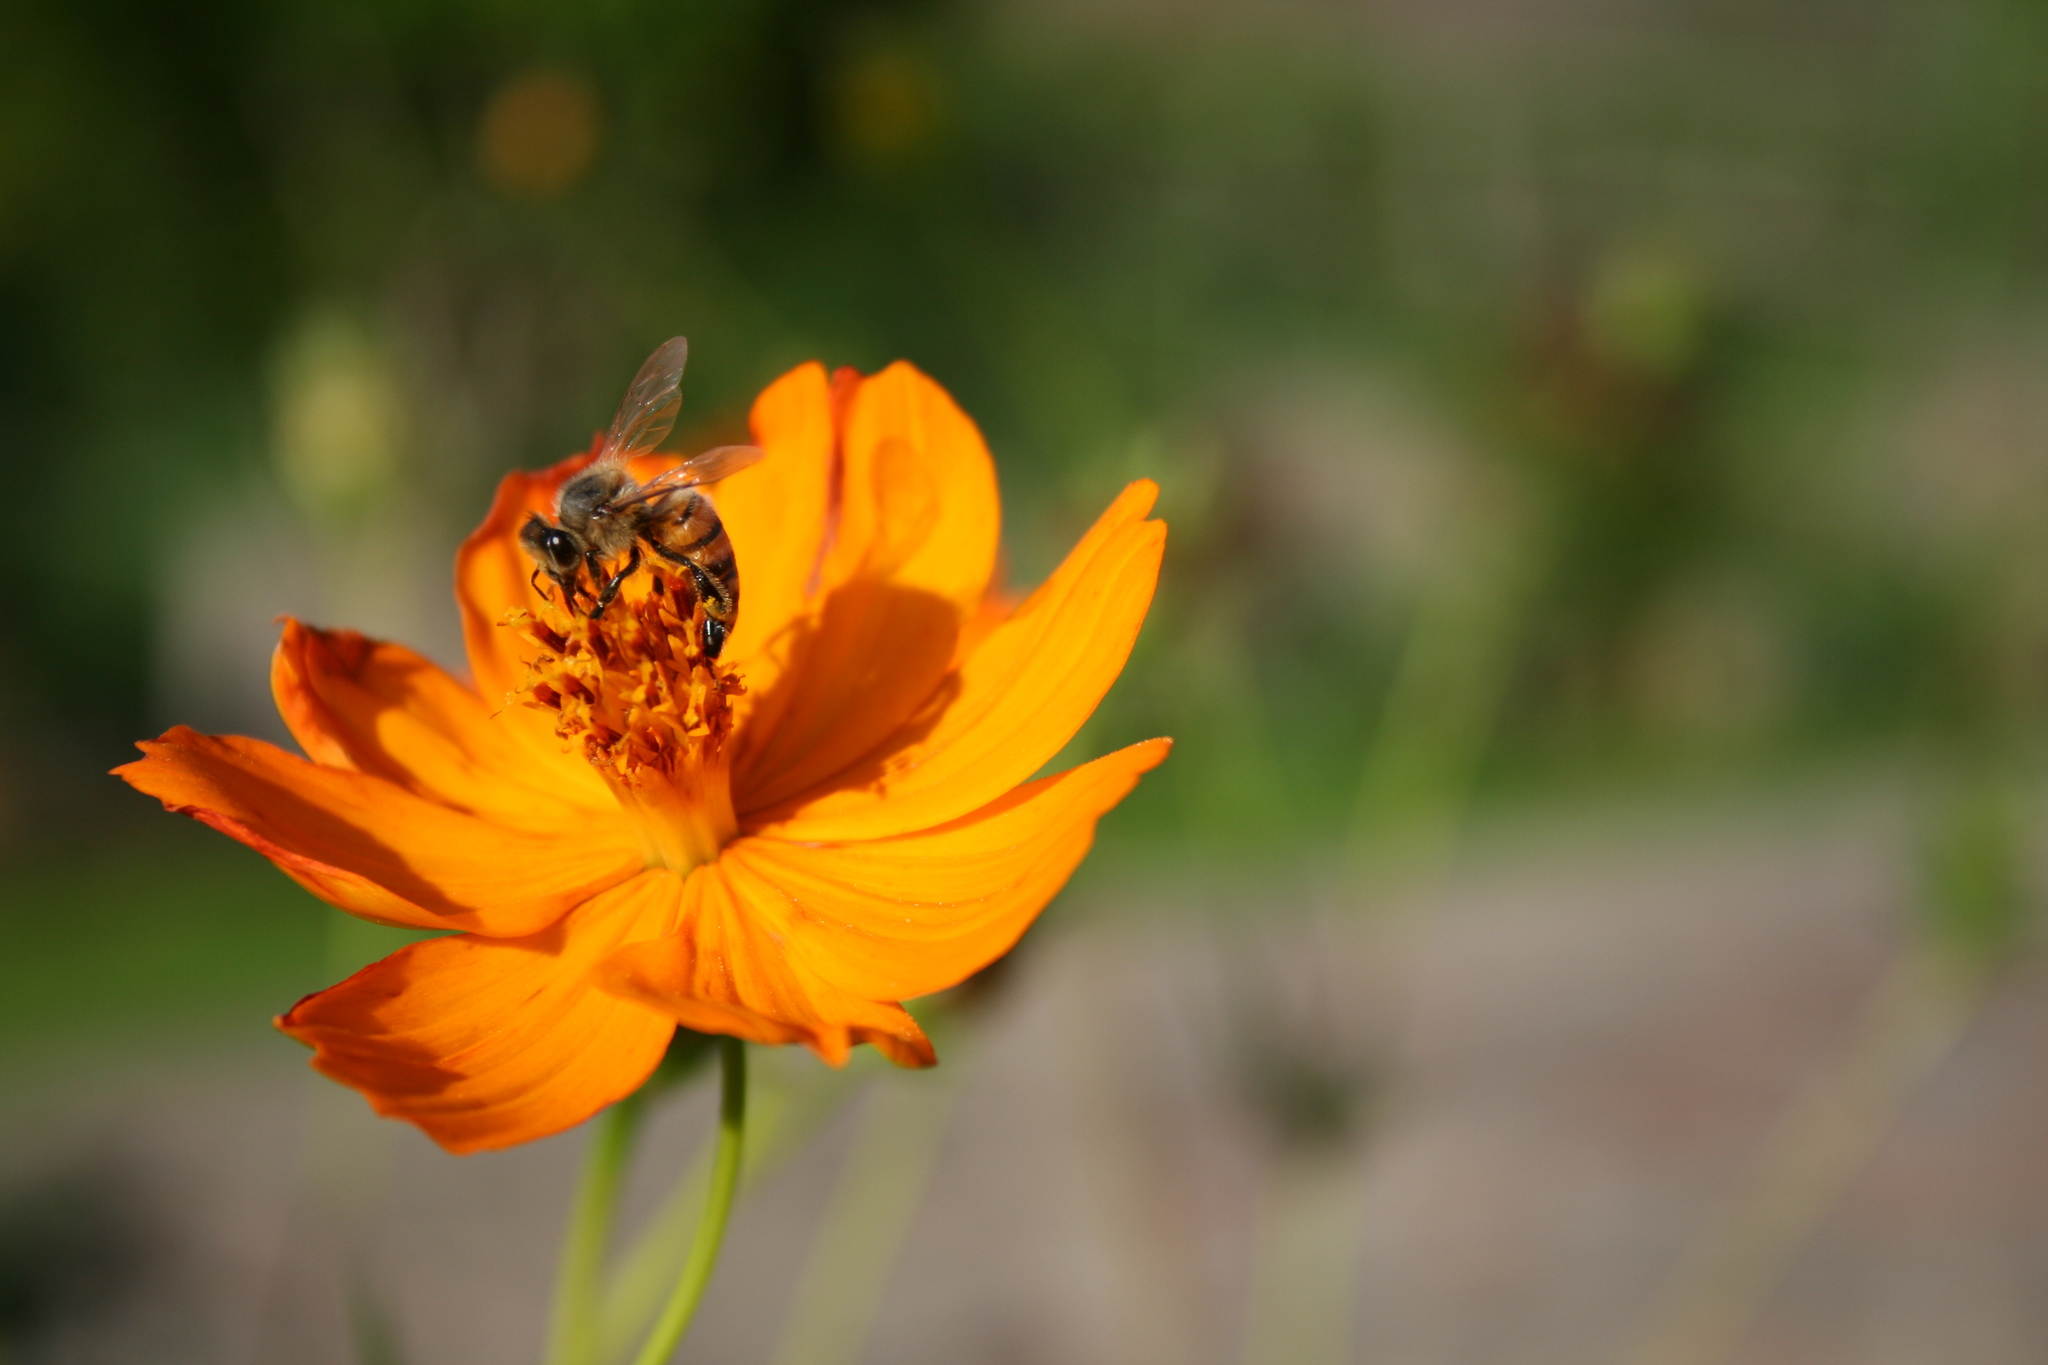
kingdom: Animalia
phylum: Arthropoda
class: Insecta
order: Hymenoptera
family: Apidae
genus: Apis
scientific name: Apis mellifera
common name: Honey bee
